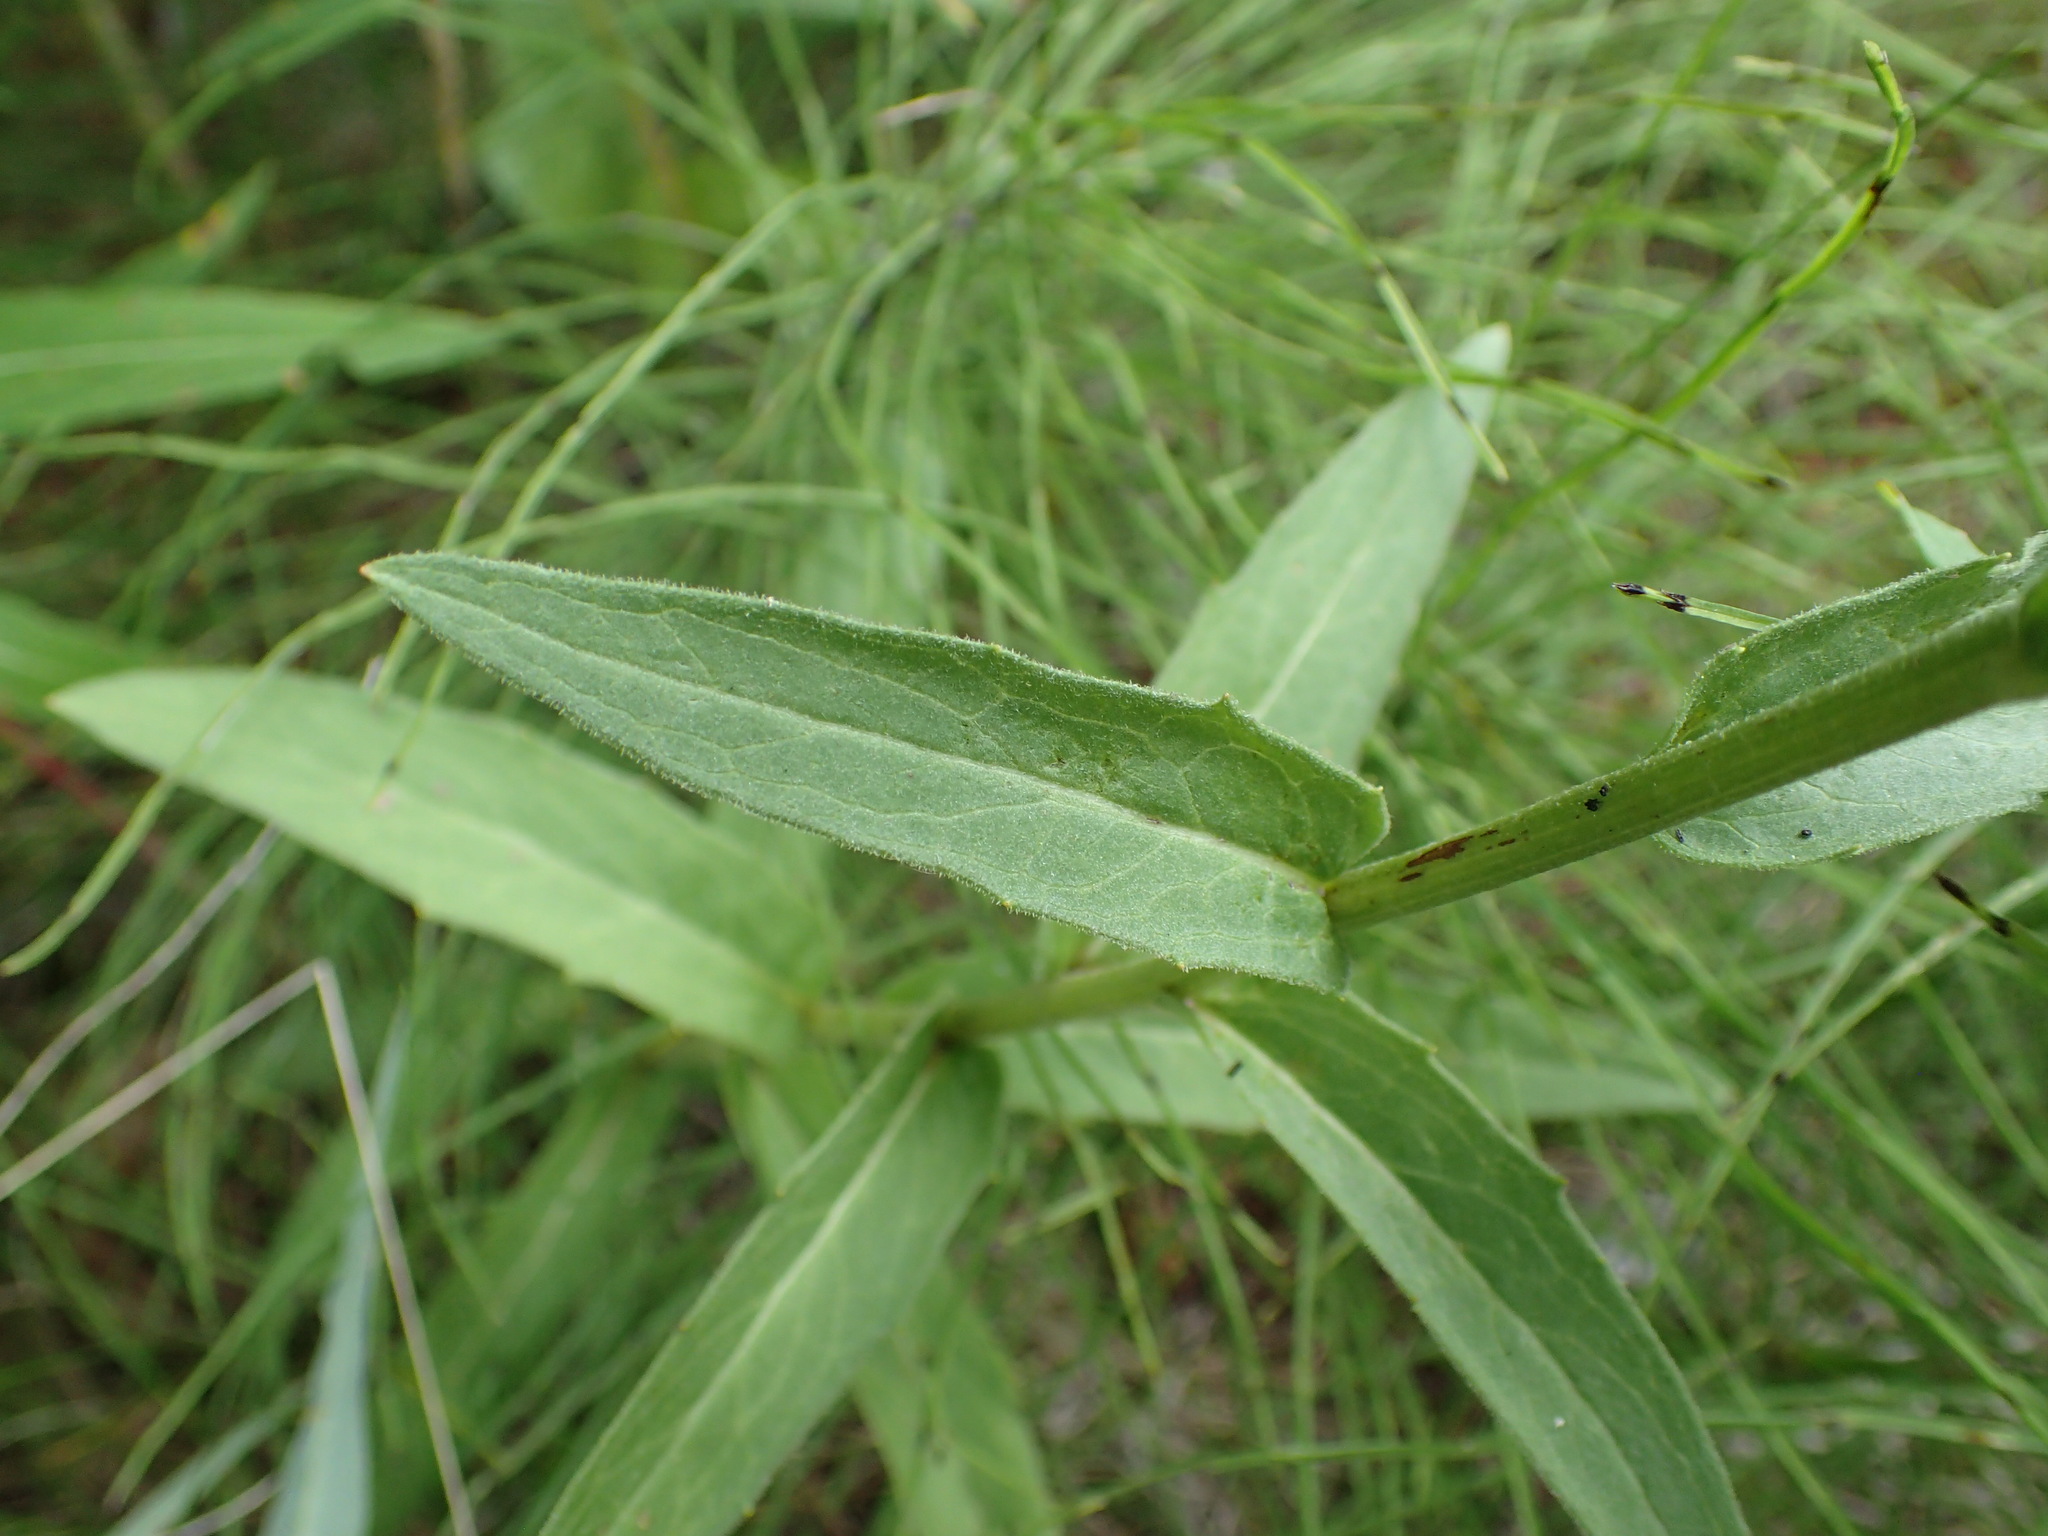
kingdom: Plantae
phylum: Tracheophyta
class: Magnoliopsida
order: Asterales
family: Asteraceae
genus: Hieracium
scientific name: Hieracium umbellatum
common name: Northern hawkweed
